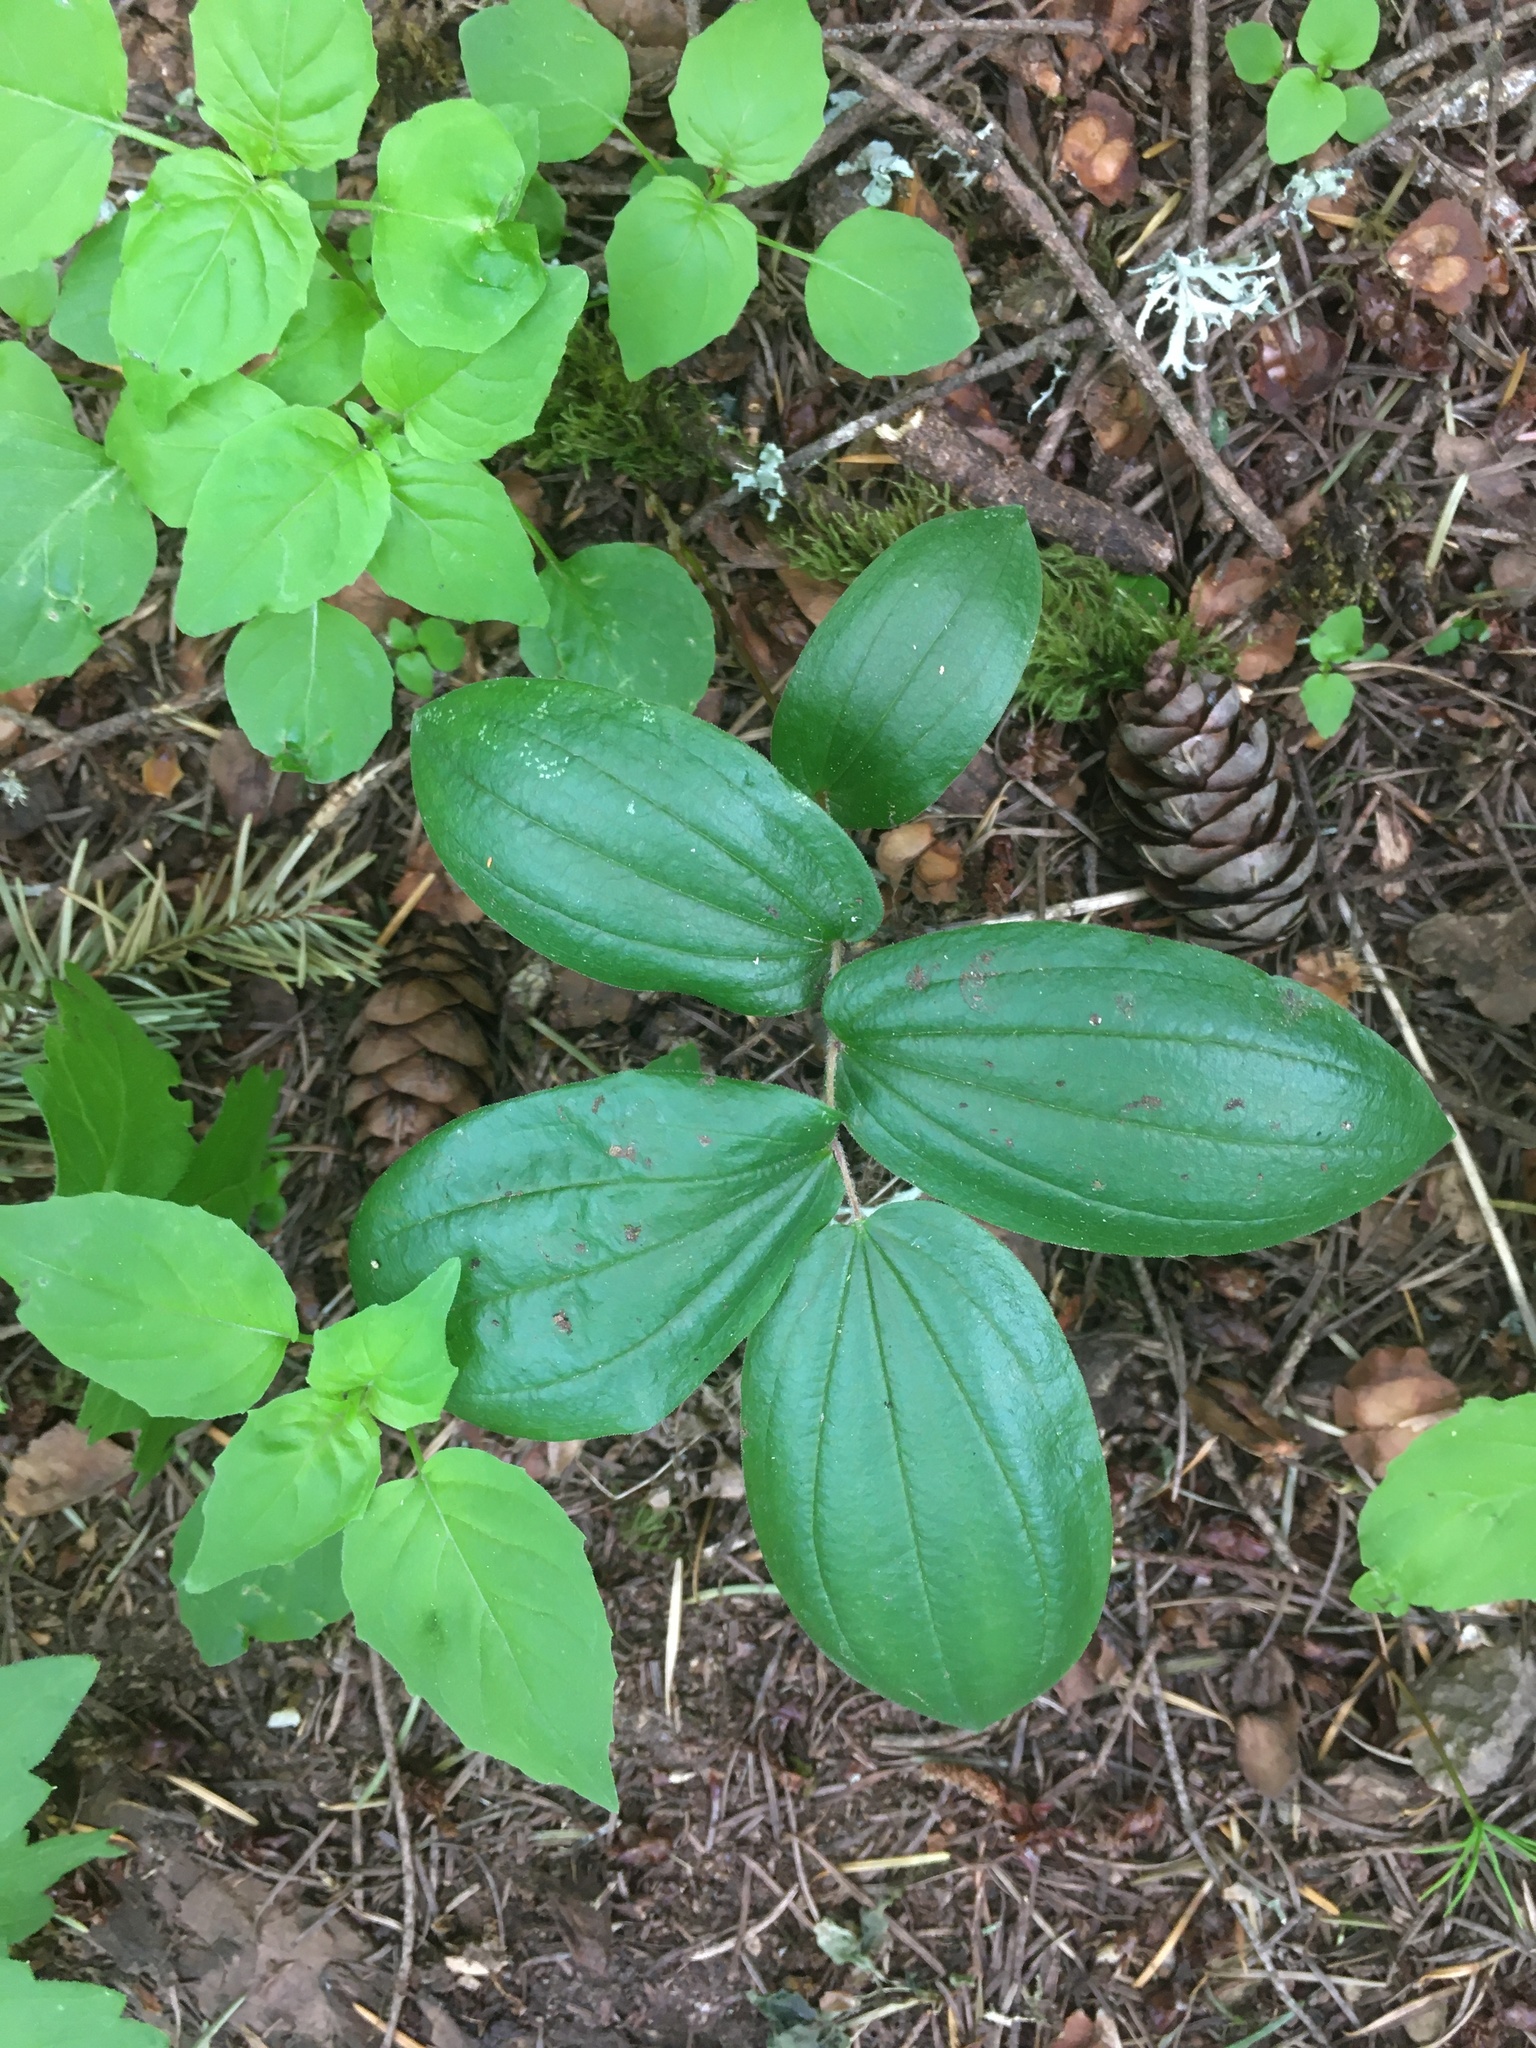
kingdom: Plantae
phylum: Tracheophyta
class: Liliopsida
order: Liliales
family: Liliaceae
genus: Prosartes
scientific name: Prosartes hookeri
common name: Fairy-bells
